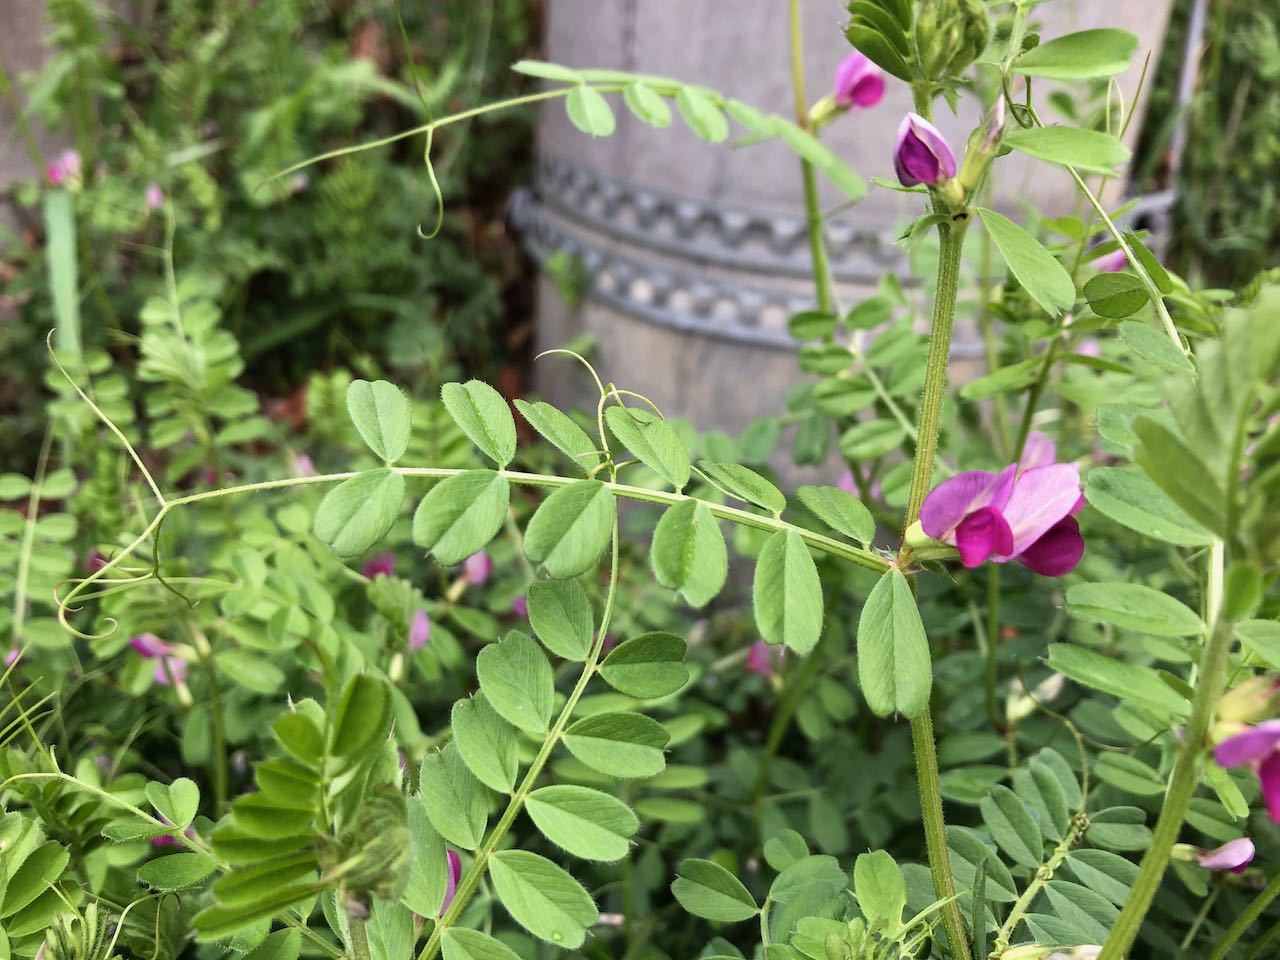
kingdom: Plantae
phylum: Tracheophyta
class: Magnoliopsida
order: Fabales
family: Fabaceae
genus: Vicia
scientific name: Vicia sativa
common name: Garden vetch
